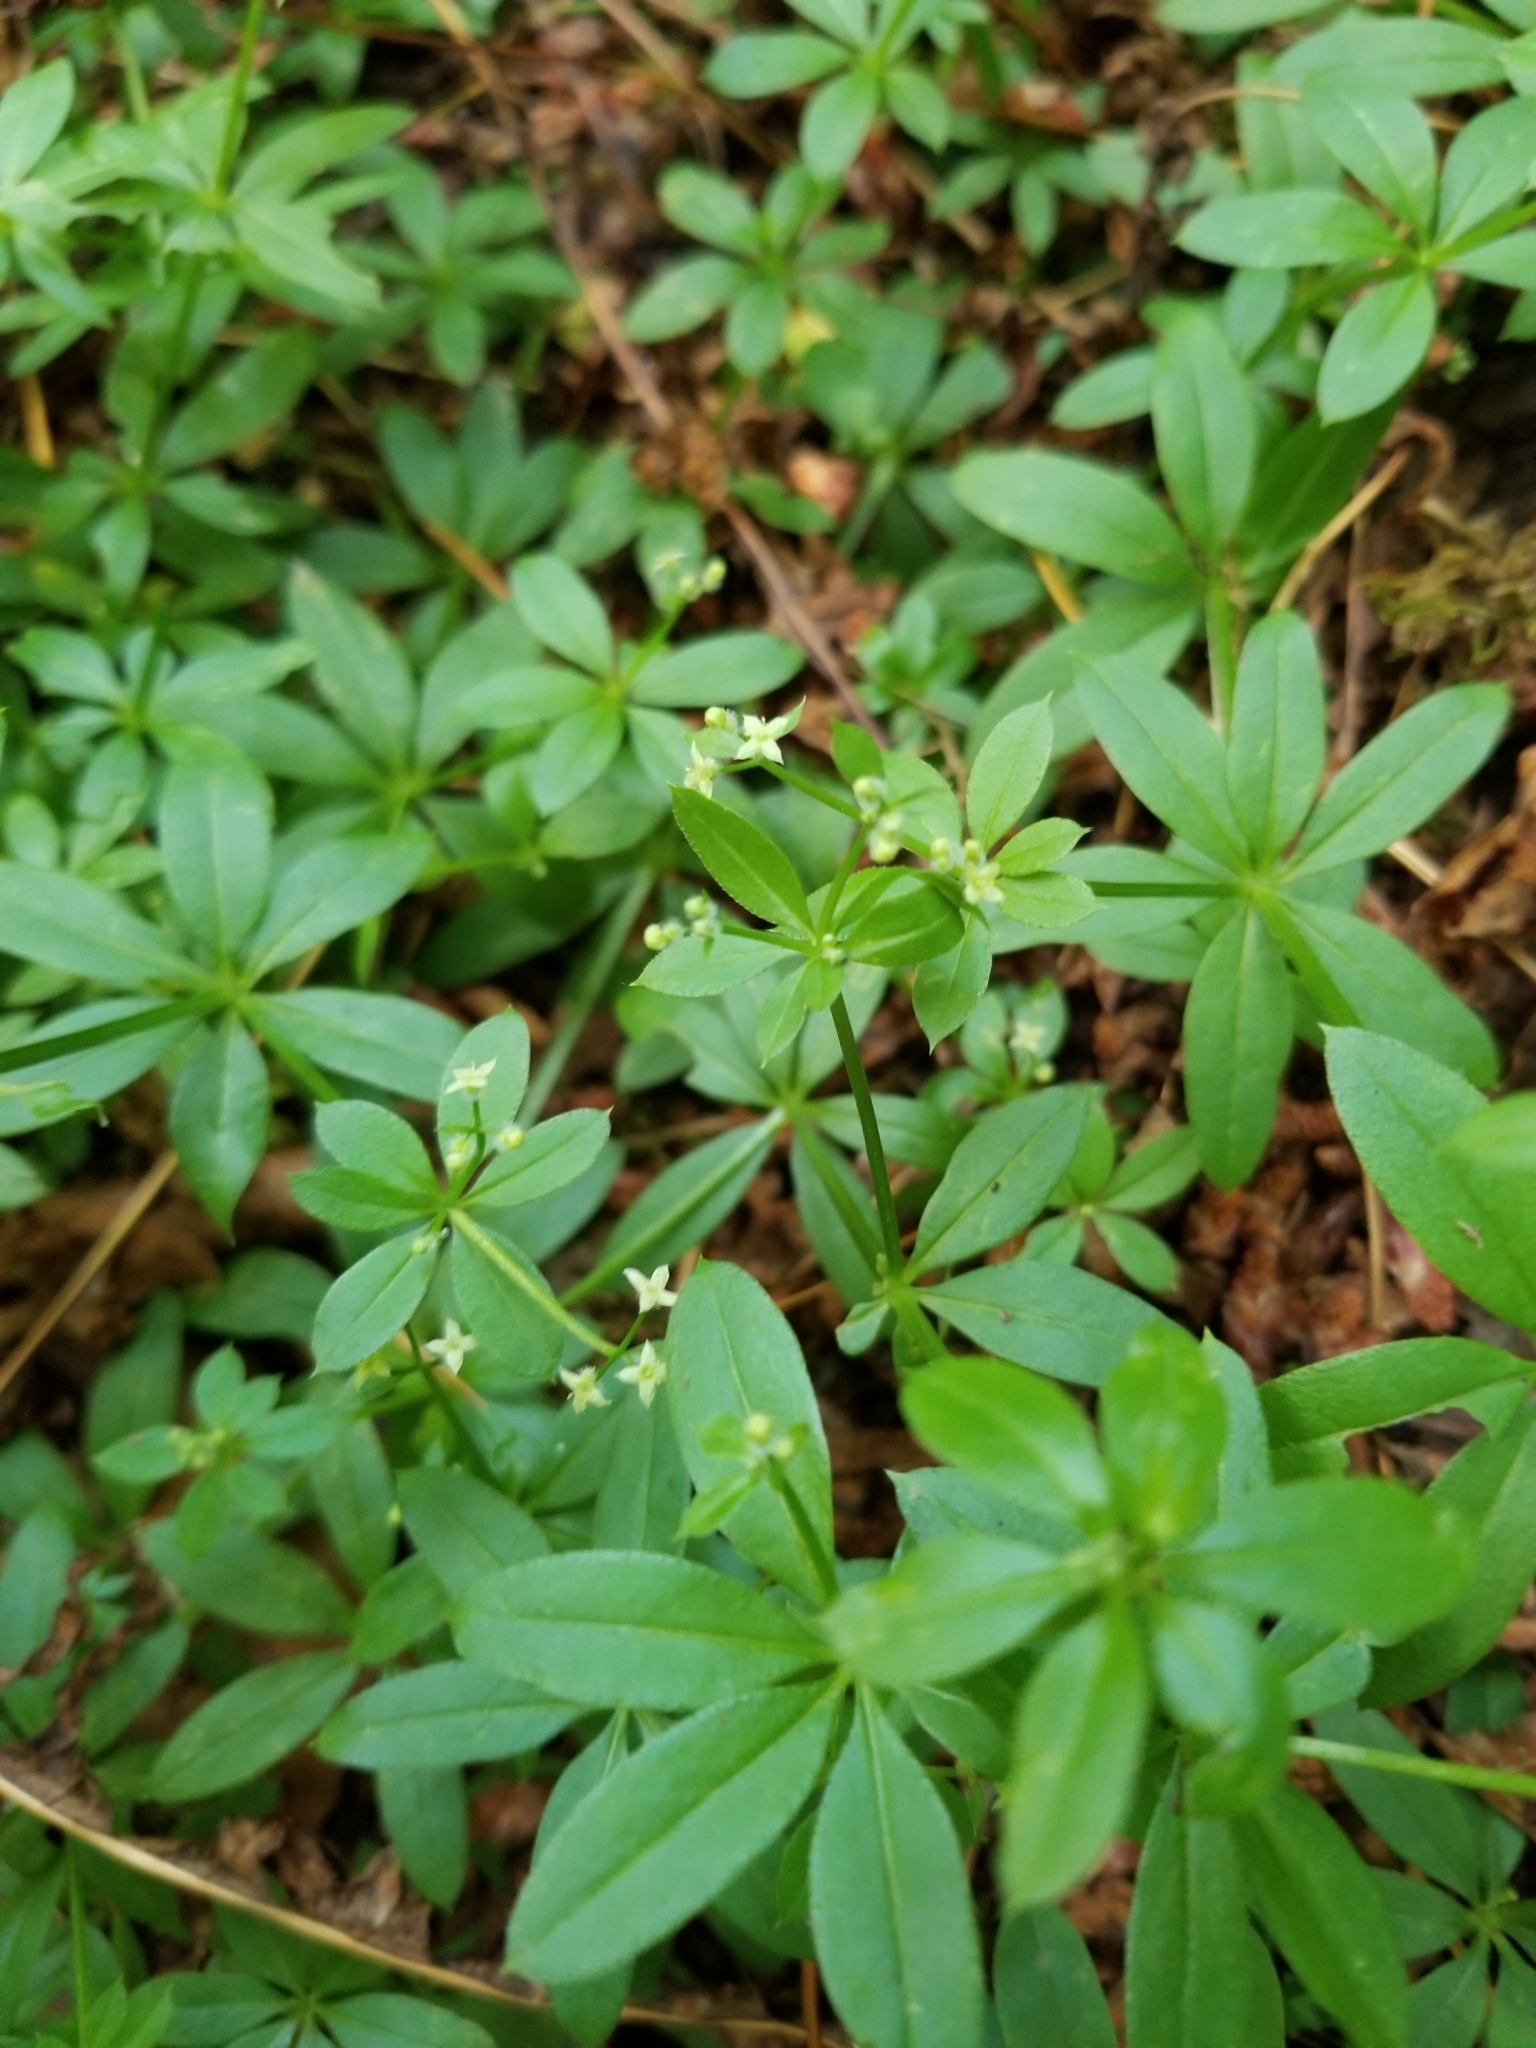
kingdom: Plantae
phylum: Tracheophyta
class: Magnoliopsida
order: Gentianales
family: Rubiaceae
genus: Galium
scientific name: Galium triflorum
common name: Fragrant bedstraw
